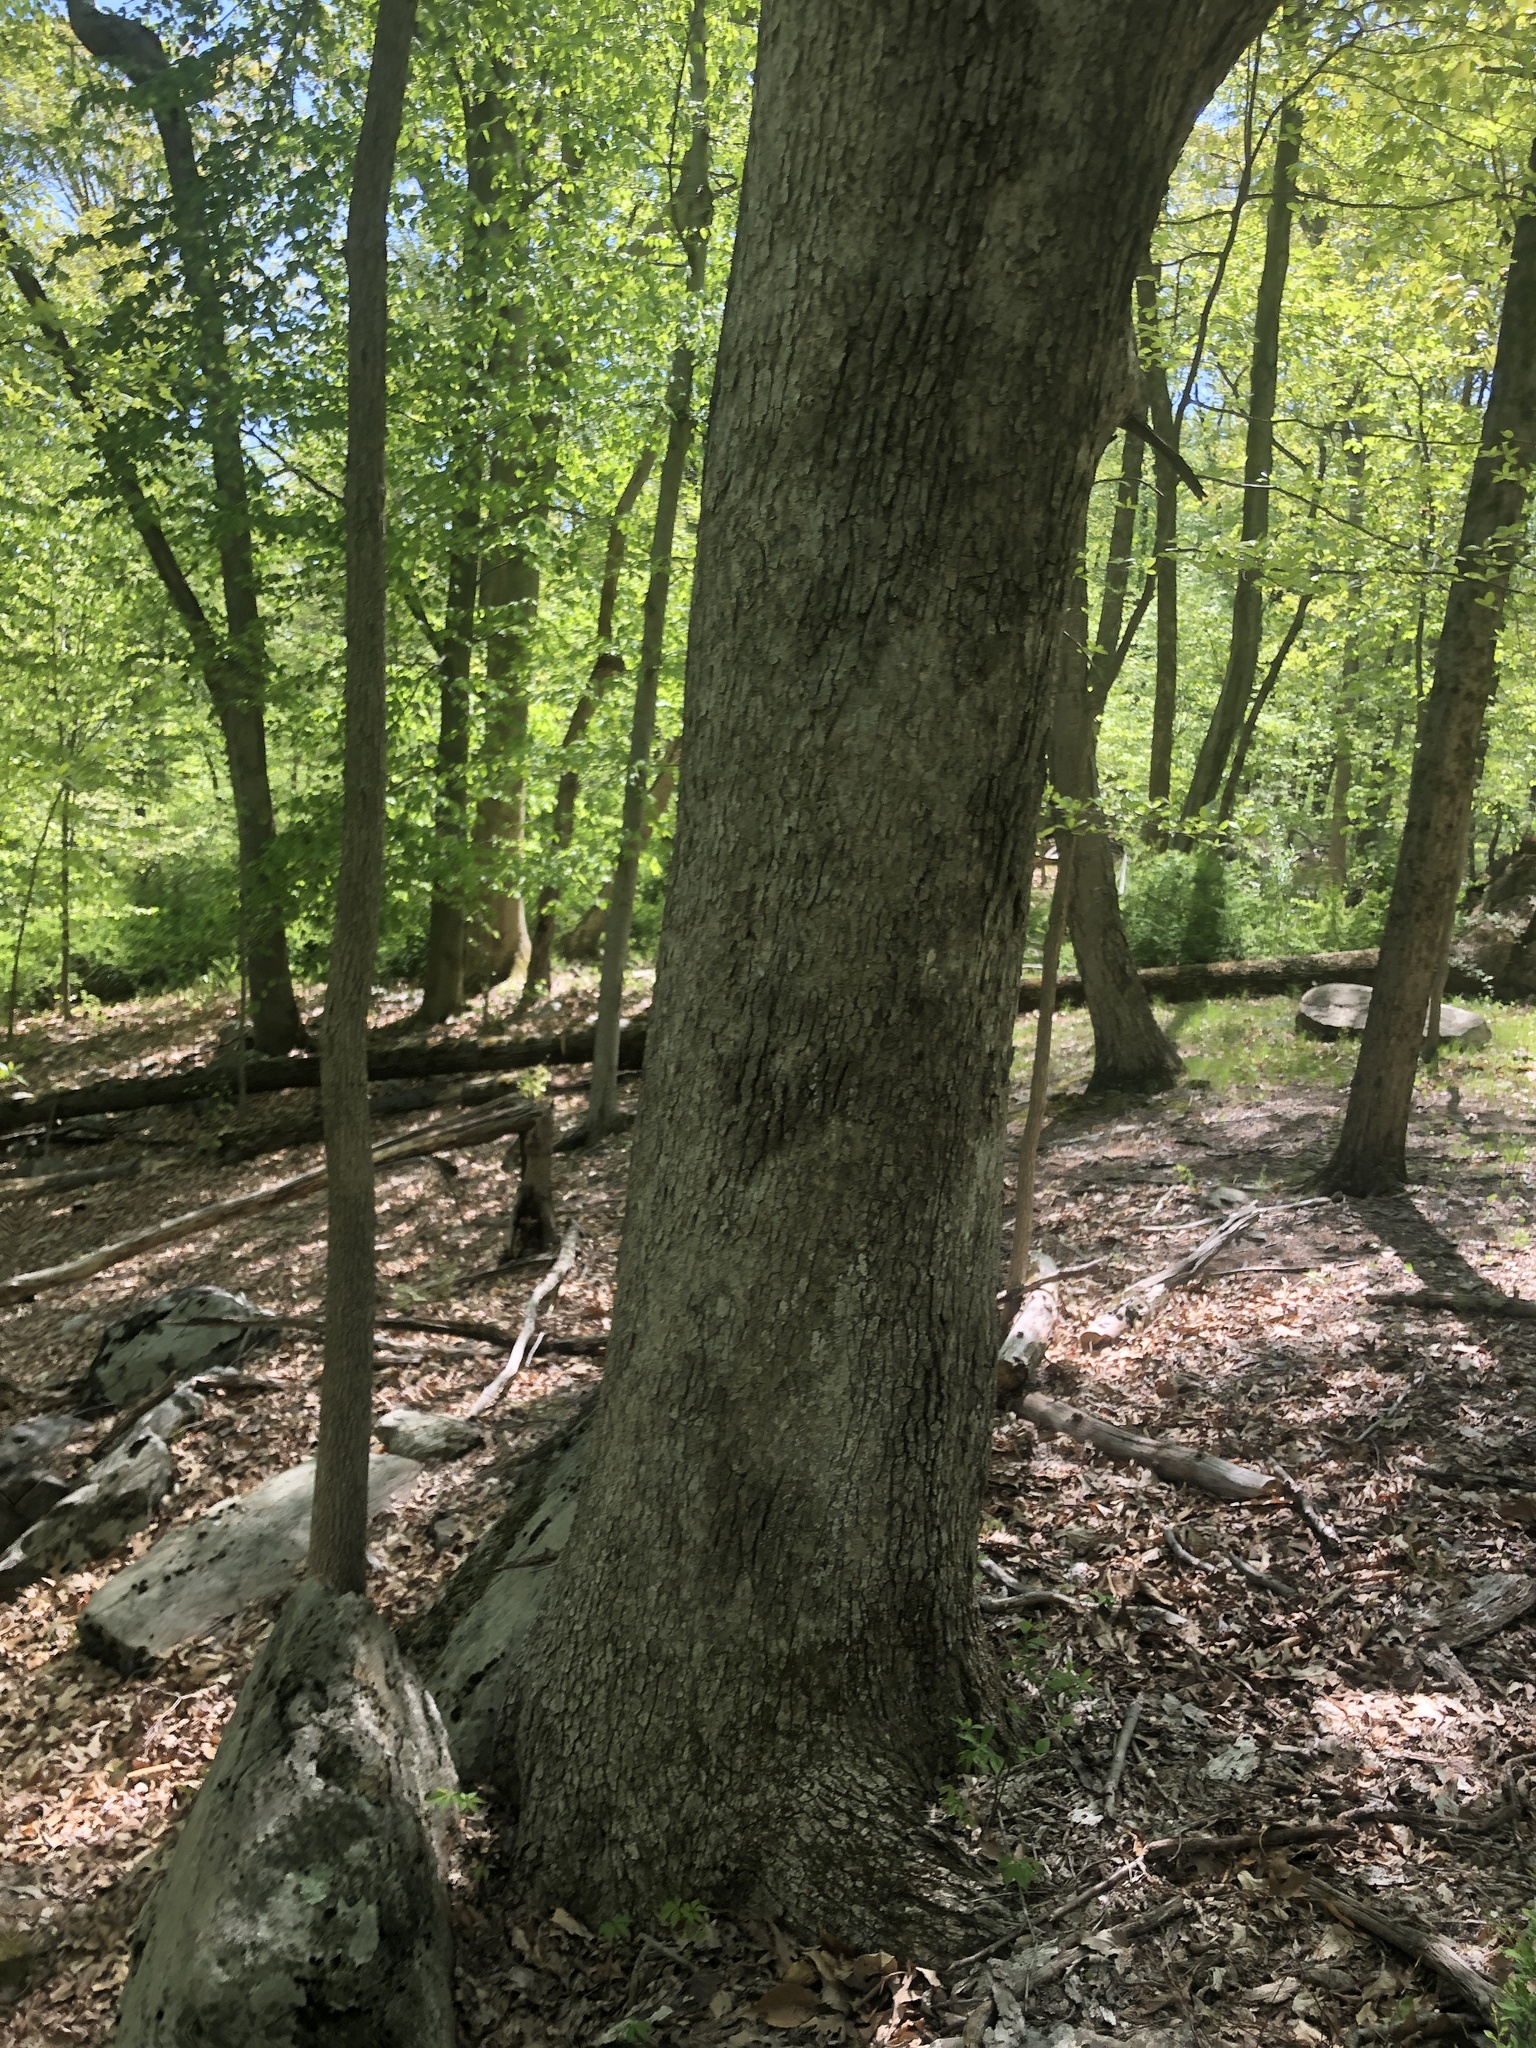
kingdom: Fungi
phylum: Basidiomycota
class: Agaricomycetes
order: Russulales
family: Stereaceae
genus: Acanthophysium
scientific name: Acanthophysium oakesii
